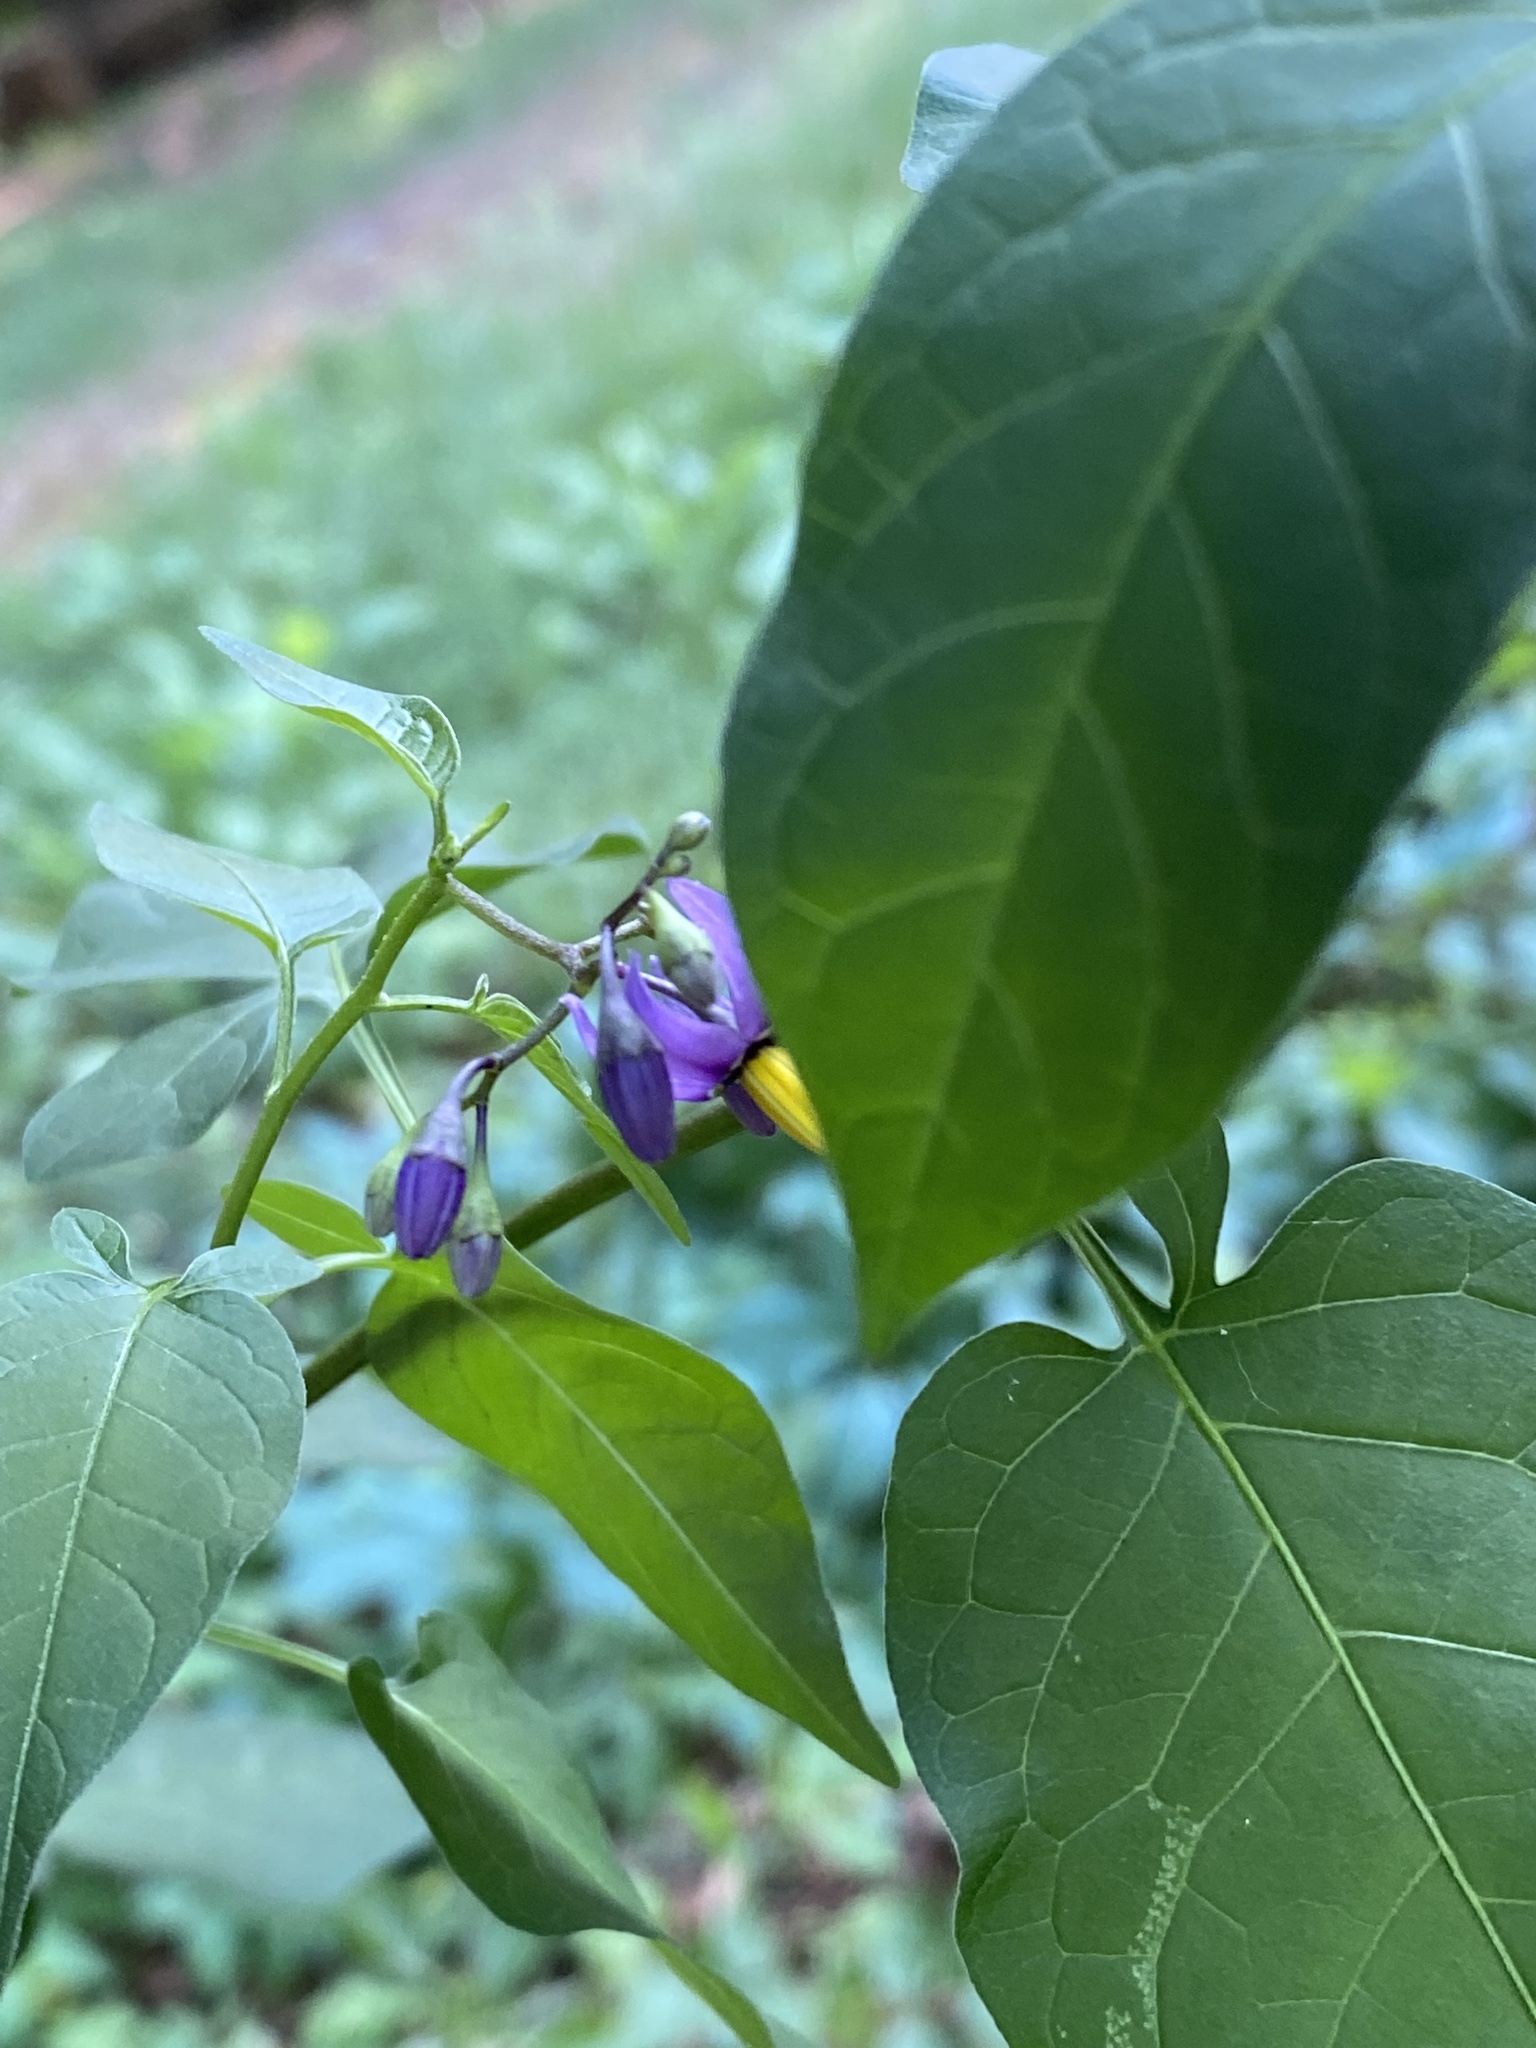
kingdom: Plantae
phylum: Tracheophyta
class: Magnoliopsida
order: Solanales
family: Solanaceae
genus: Solanum
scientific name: Solanum dulcamara
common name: Climbing nightshade
